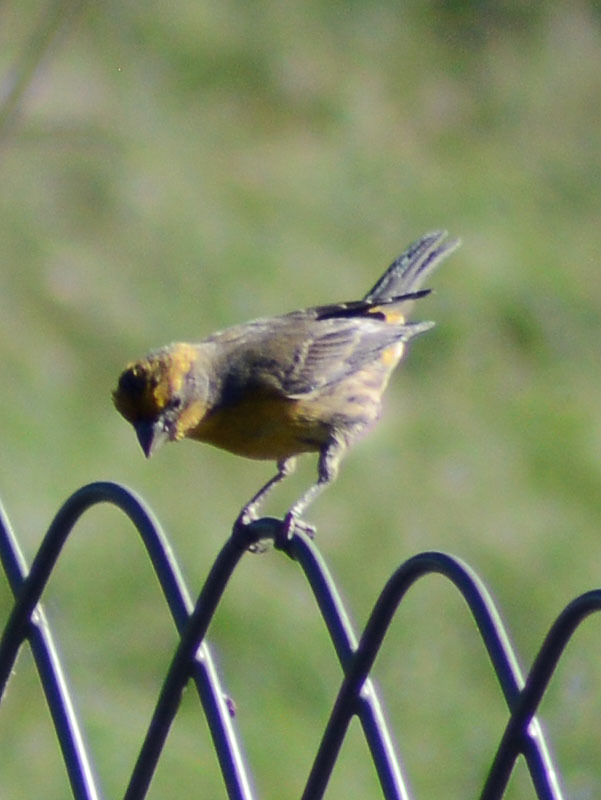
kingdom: Animalia
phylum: Chordata
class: Aves
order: Passeriformes
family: Fringillidae
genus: Haemorhous
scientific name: Haemorhous mexicanus
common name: House finch
